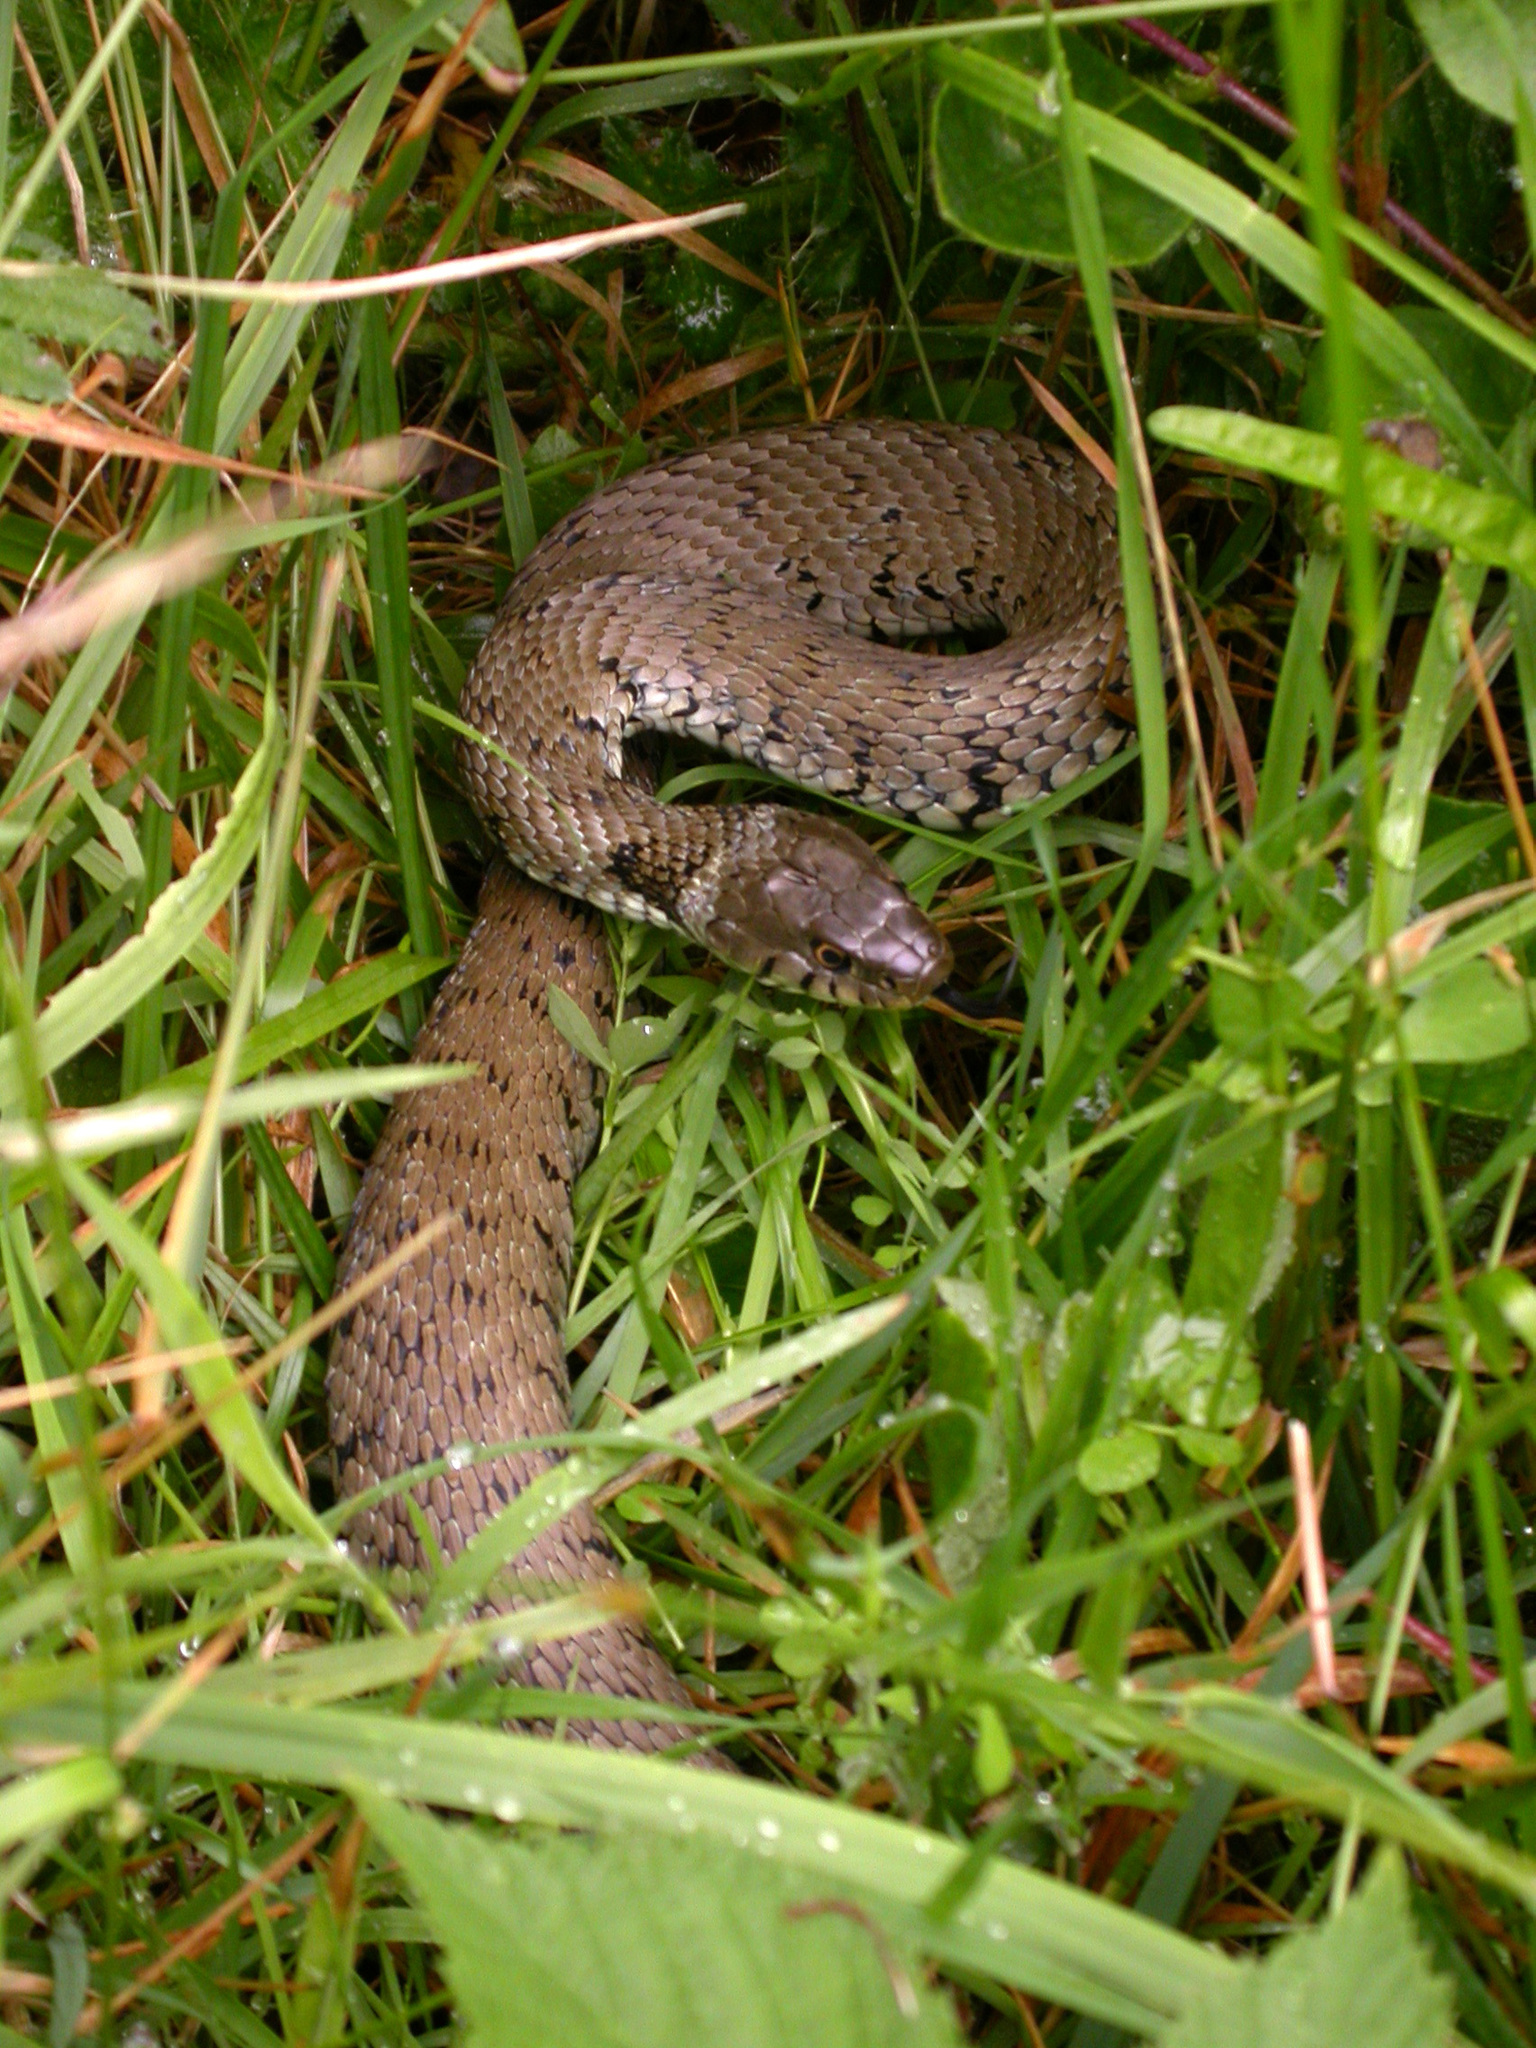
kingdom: Animalia
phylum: Chordata
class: Squamata
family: Colubridae
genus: Natrix
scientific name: Natrix helvetica
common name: Banded grass snake
